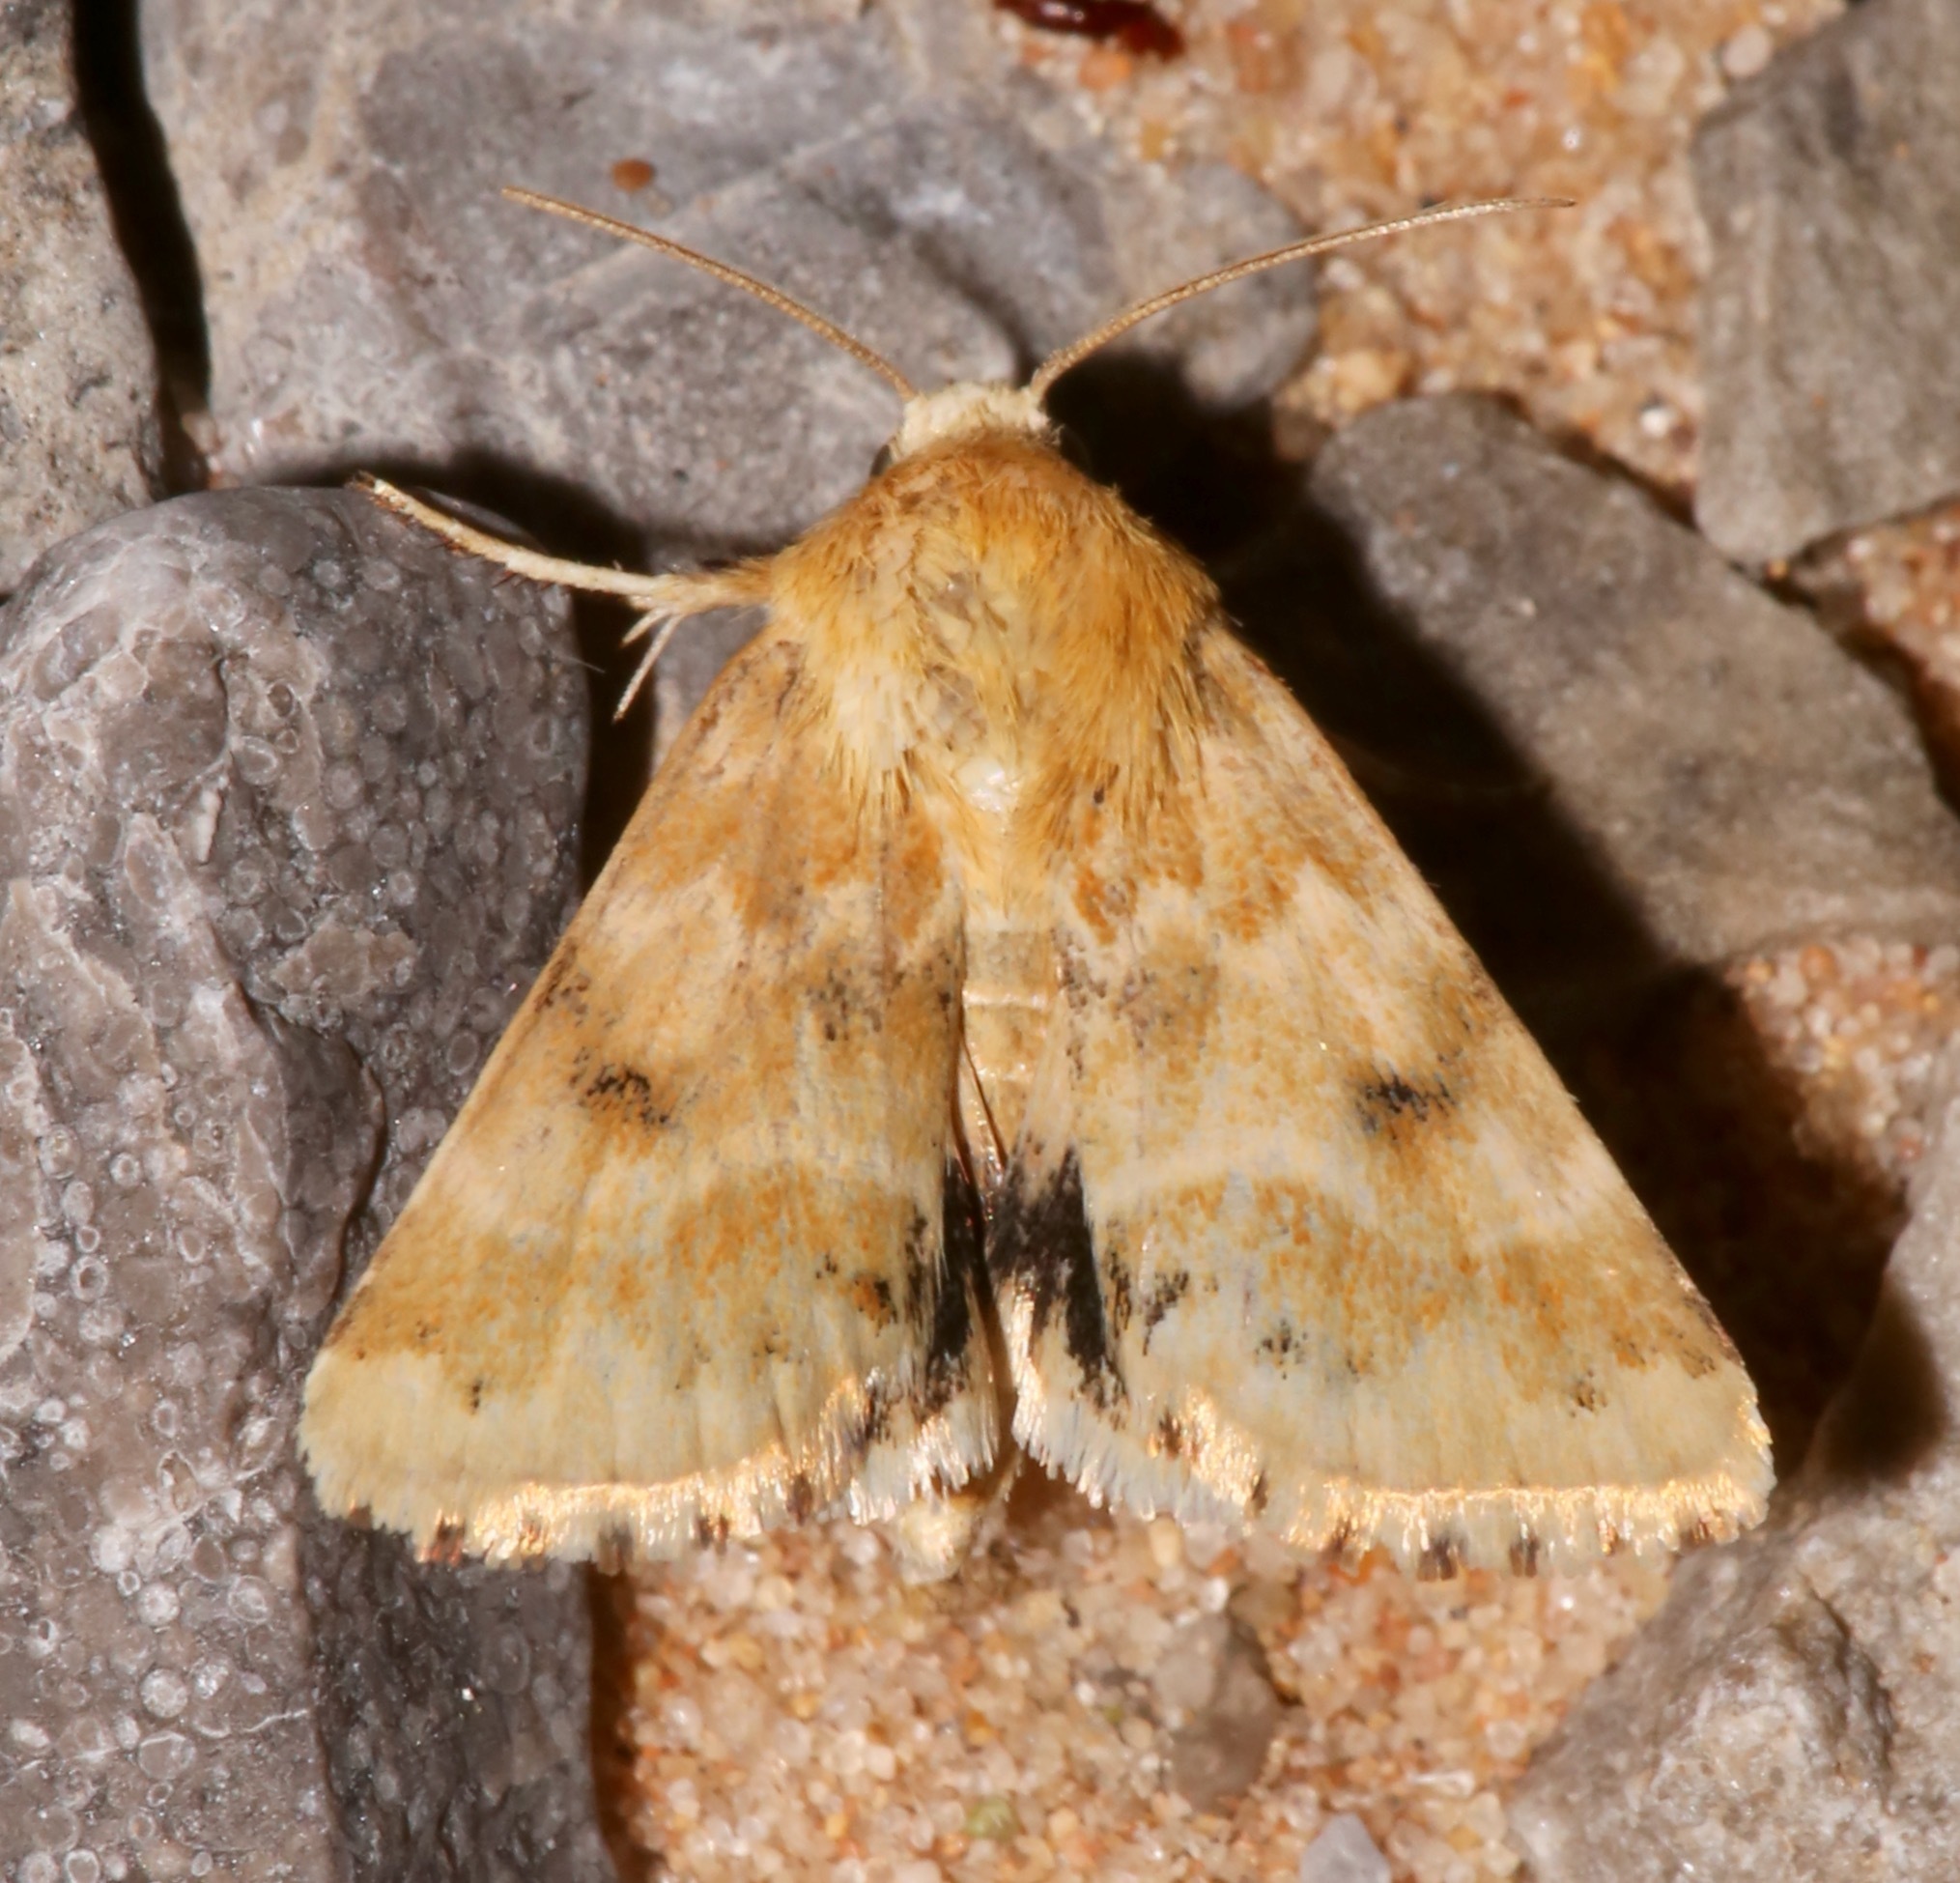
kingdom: Animalia
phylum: Arthropoda
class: Insecta
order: Lepidoptera
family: Noctuidae
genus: Schinia
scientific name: Schinia bicuspida
